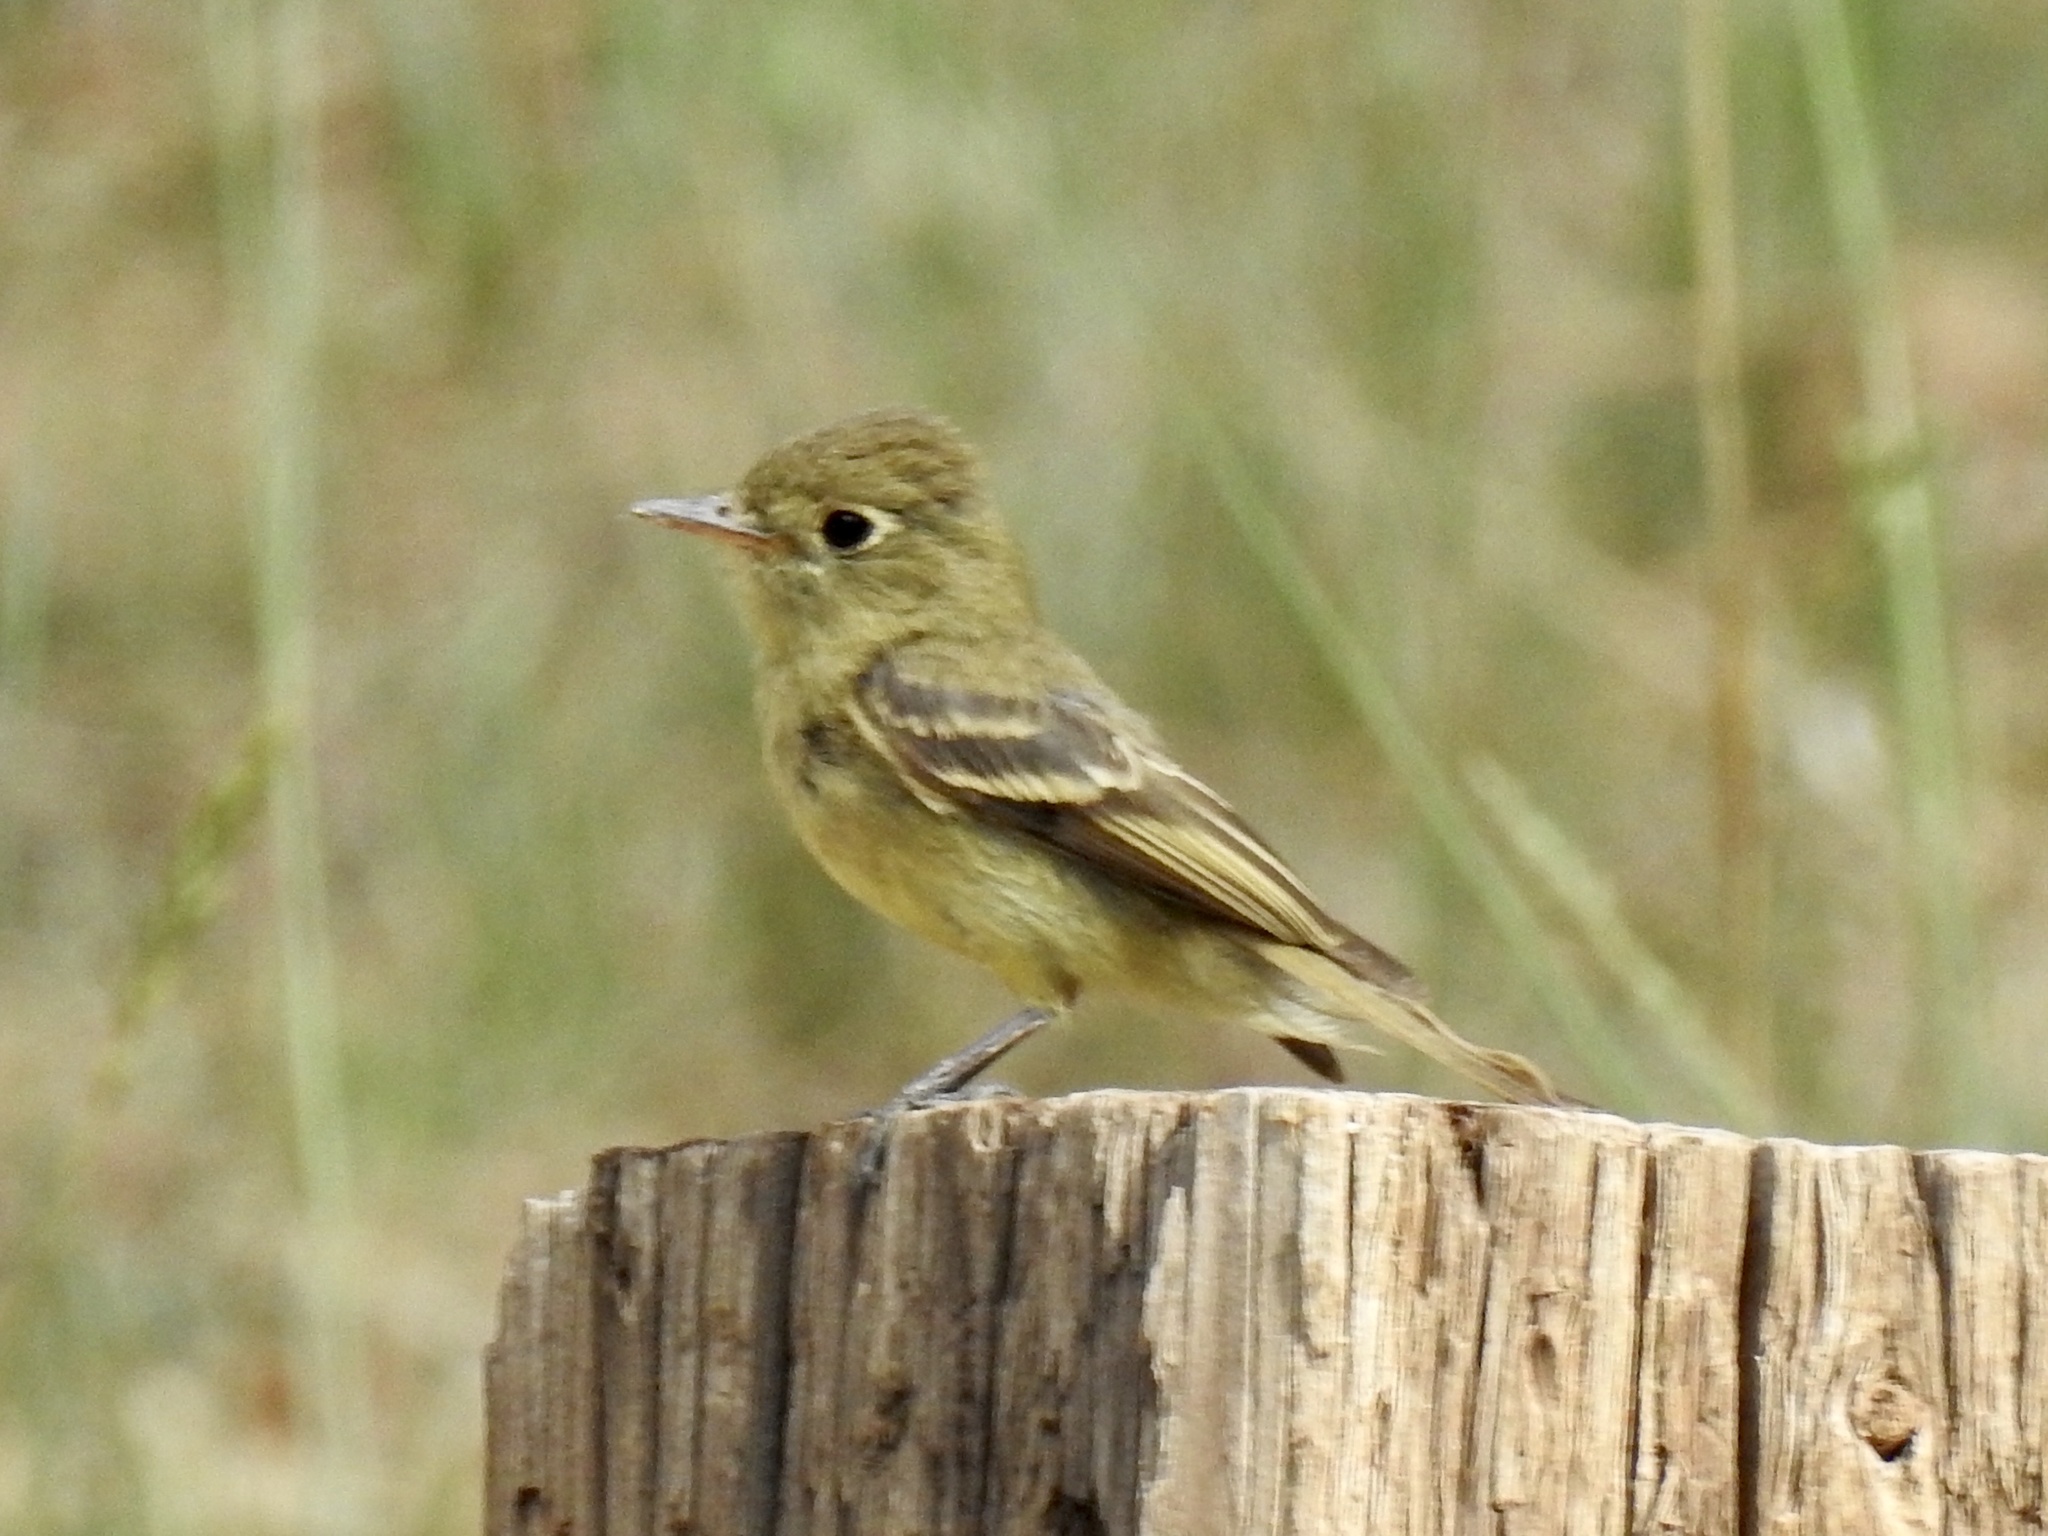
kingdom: Animalia
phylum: Chordata
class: Aves
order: Passeriformes
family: Tyrannidae
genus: Empidonax
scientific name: Empidonax difficilis
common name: Pacific-slope flycatcher
